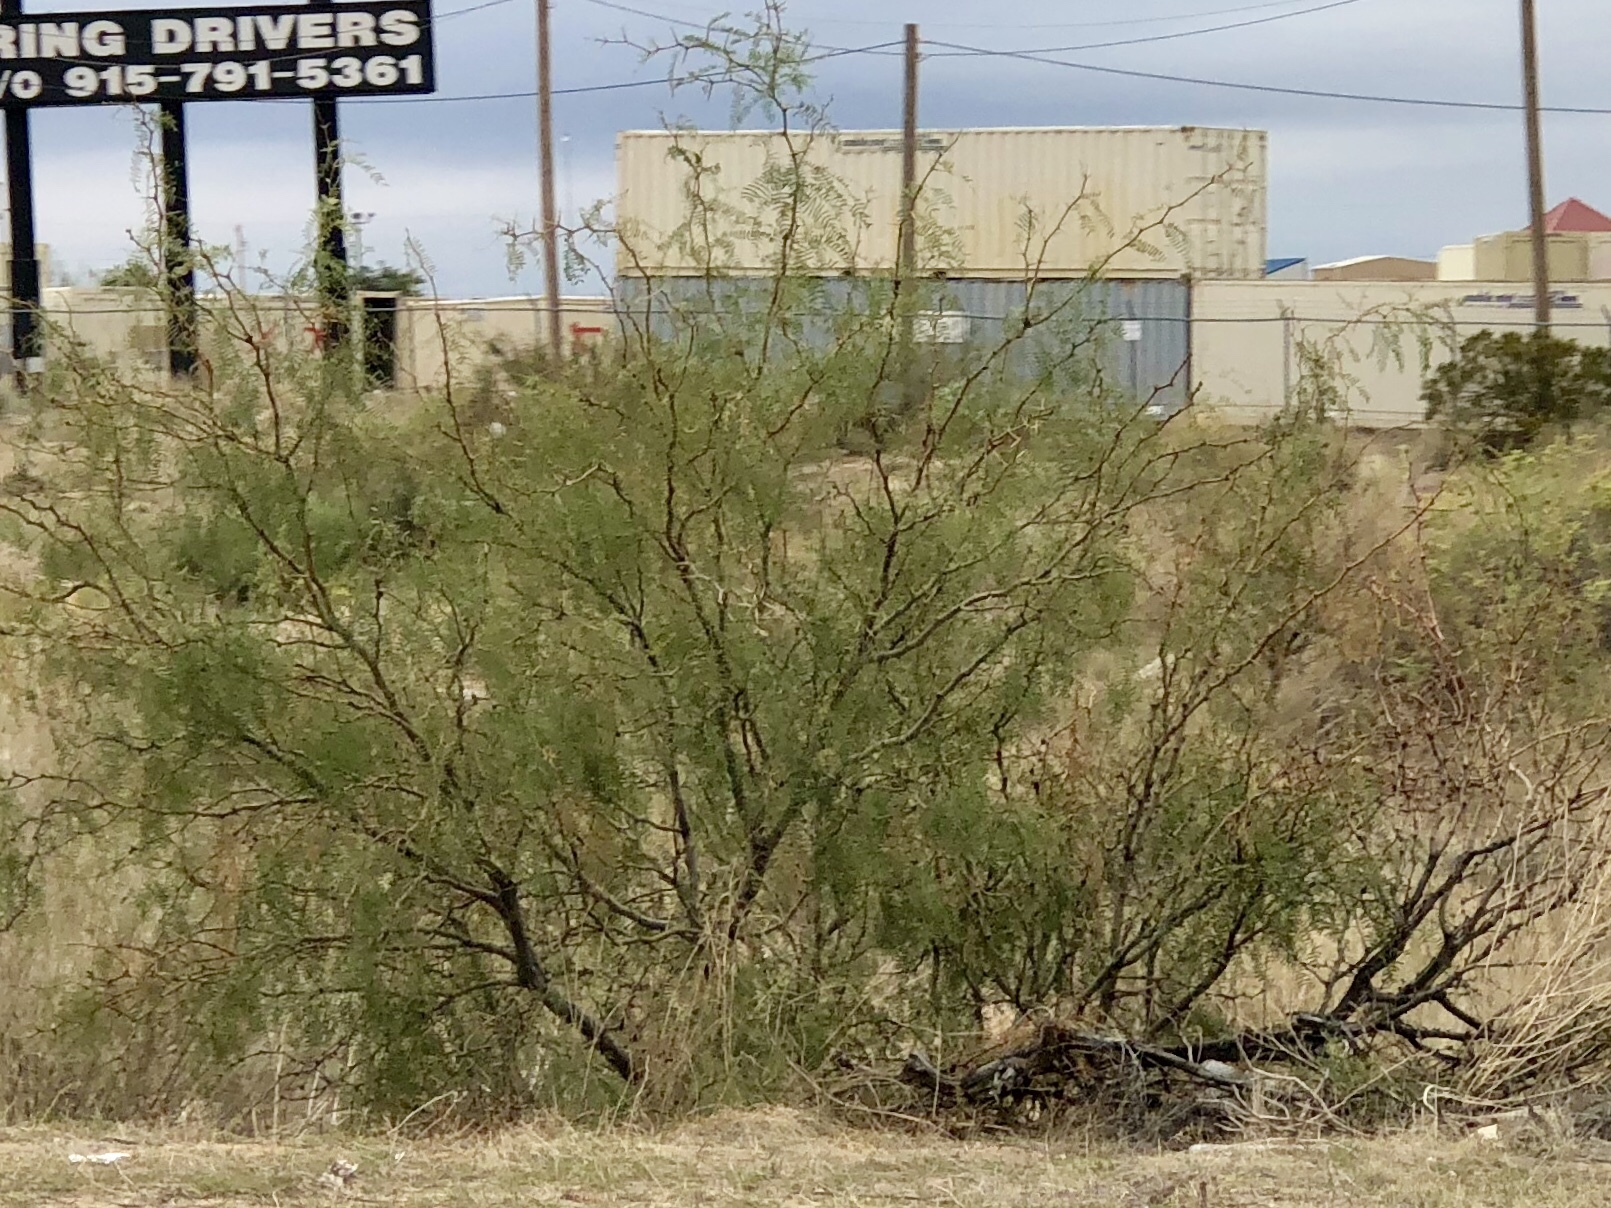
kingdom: Plantae
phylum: Tracheophyta
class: Magnoliopsida
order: Fabales
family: Fabaceae
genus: Prosopis
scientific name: Prosopis glandulosa
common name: Honey mesquite
